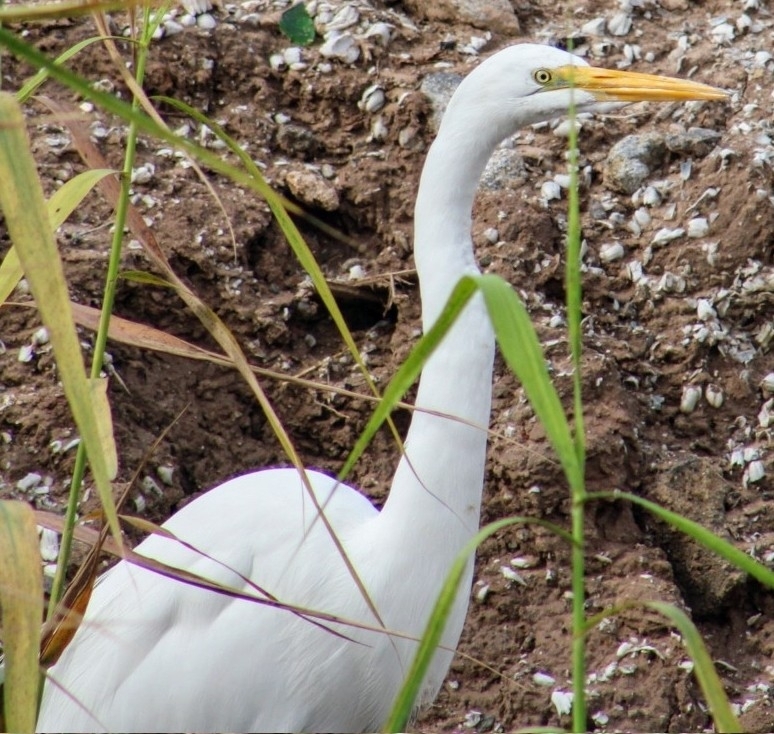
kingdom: Animalia
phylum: Chordata
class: Aves
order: Pelecaniformes
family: Ardeidae
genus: Ardea
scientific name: Ardea alba
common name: Great egret
